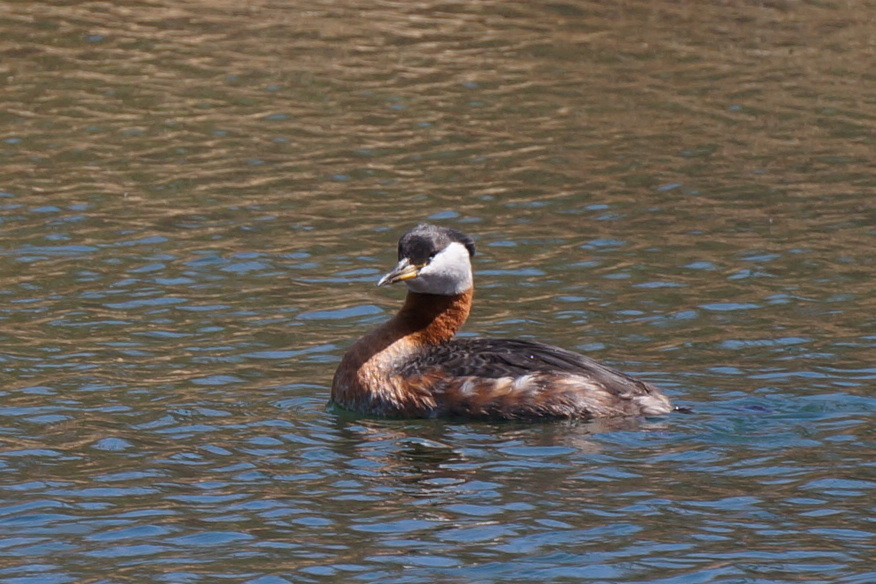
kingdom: Animalia
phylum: Chordata
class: Aves
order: Podicipediformes
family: Podicipedidae
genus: Podiceps
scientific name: Podiceps grisegena
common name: Red-necked grebe
